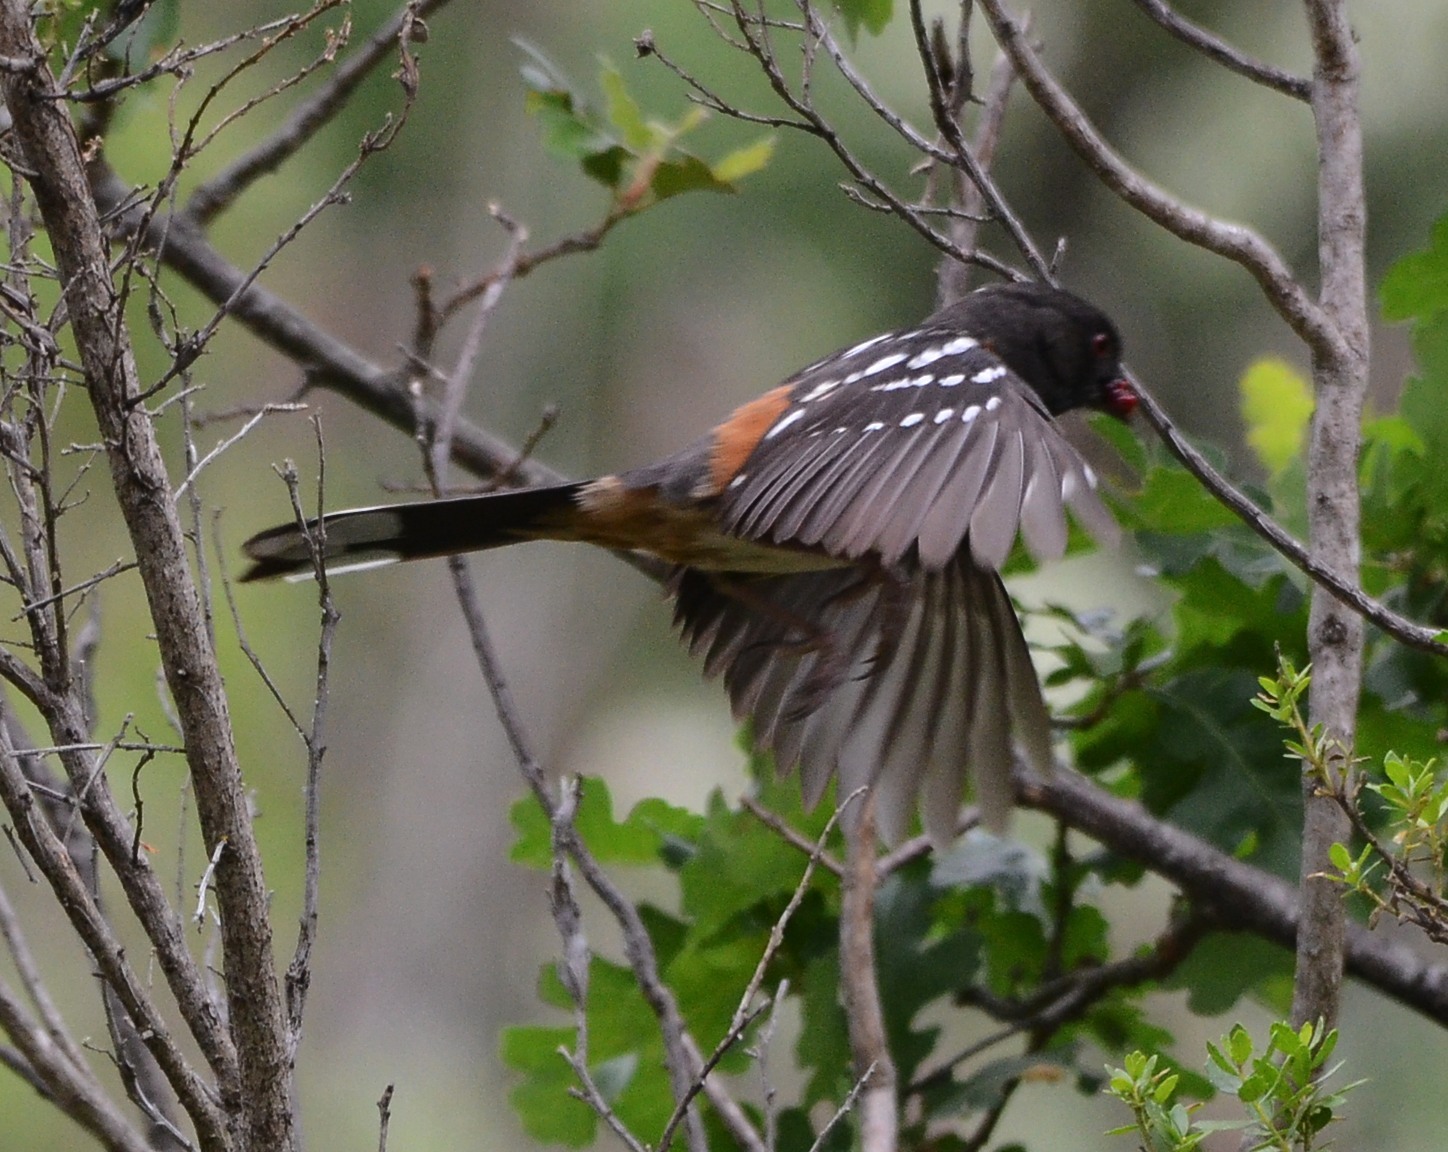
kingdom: Animalia
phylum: Chordata
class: Aves
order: Passeriformes
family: Passerellidae
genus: Pipilo
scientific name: Pipilo maculatus
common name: Spotted towhee
